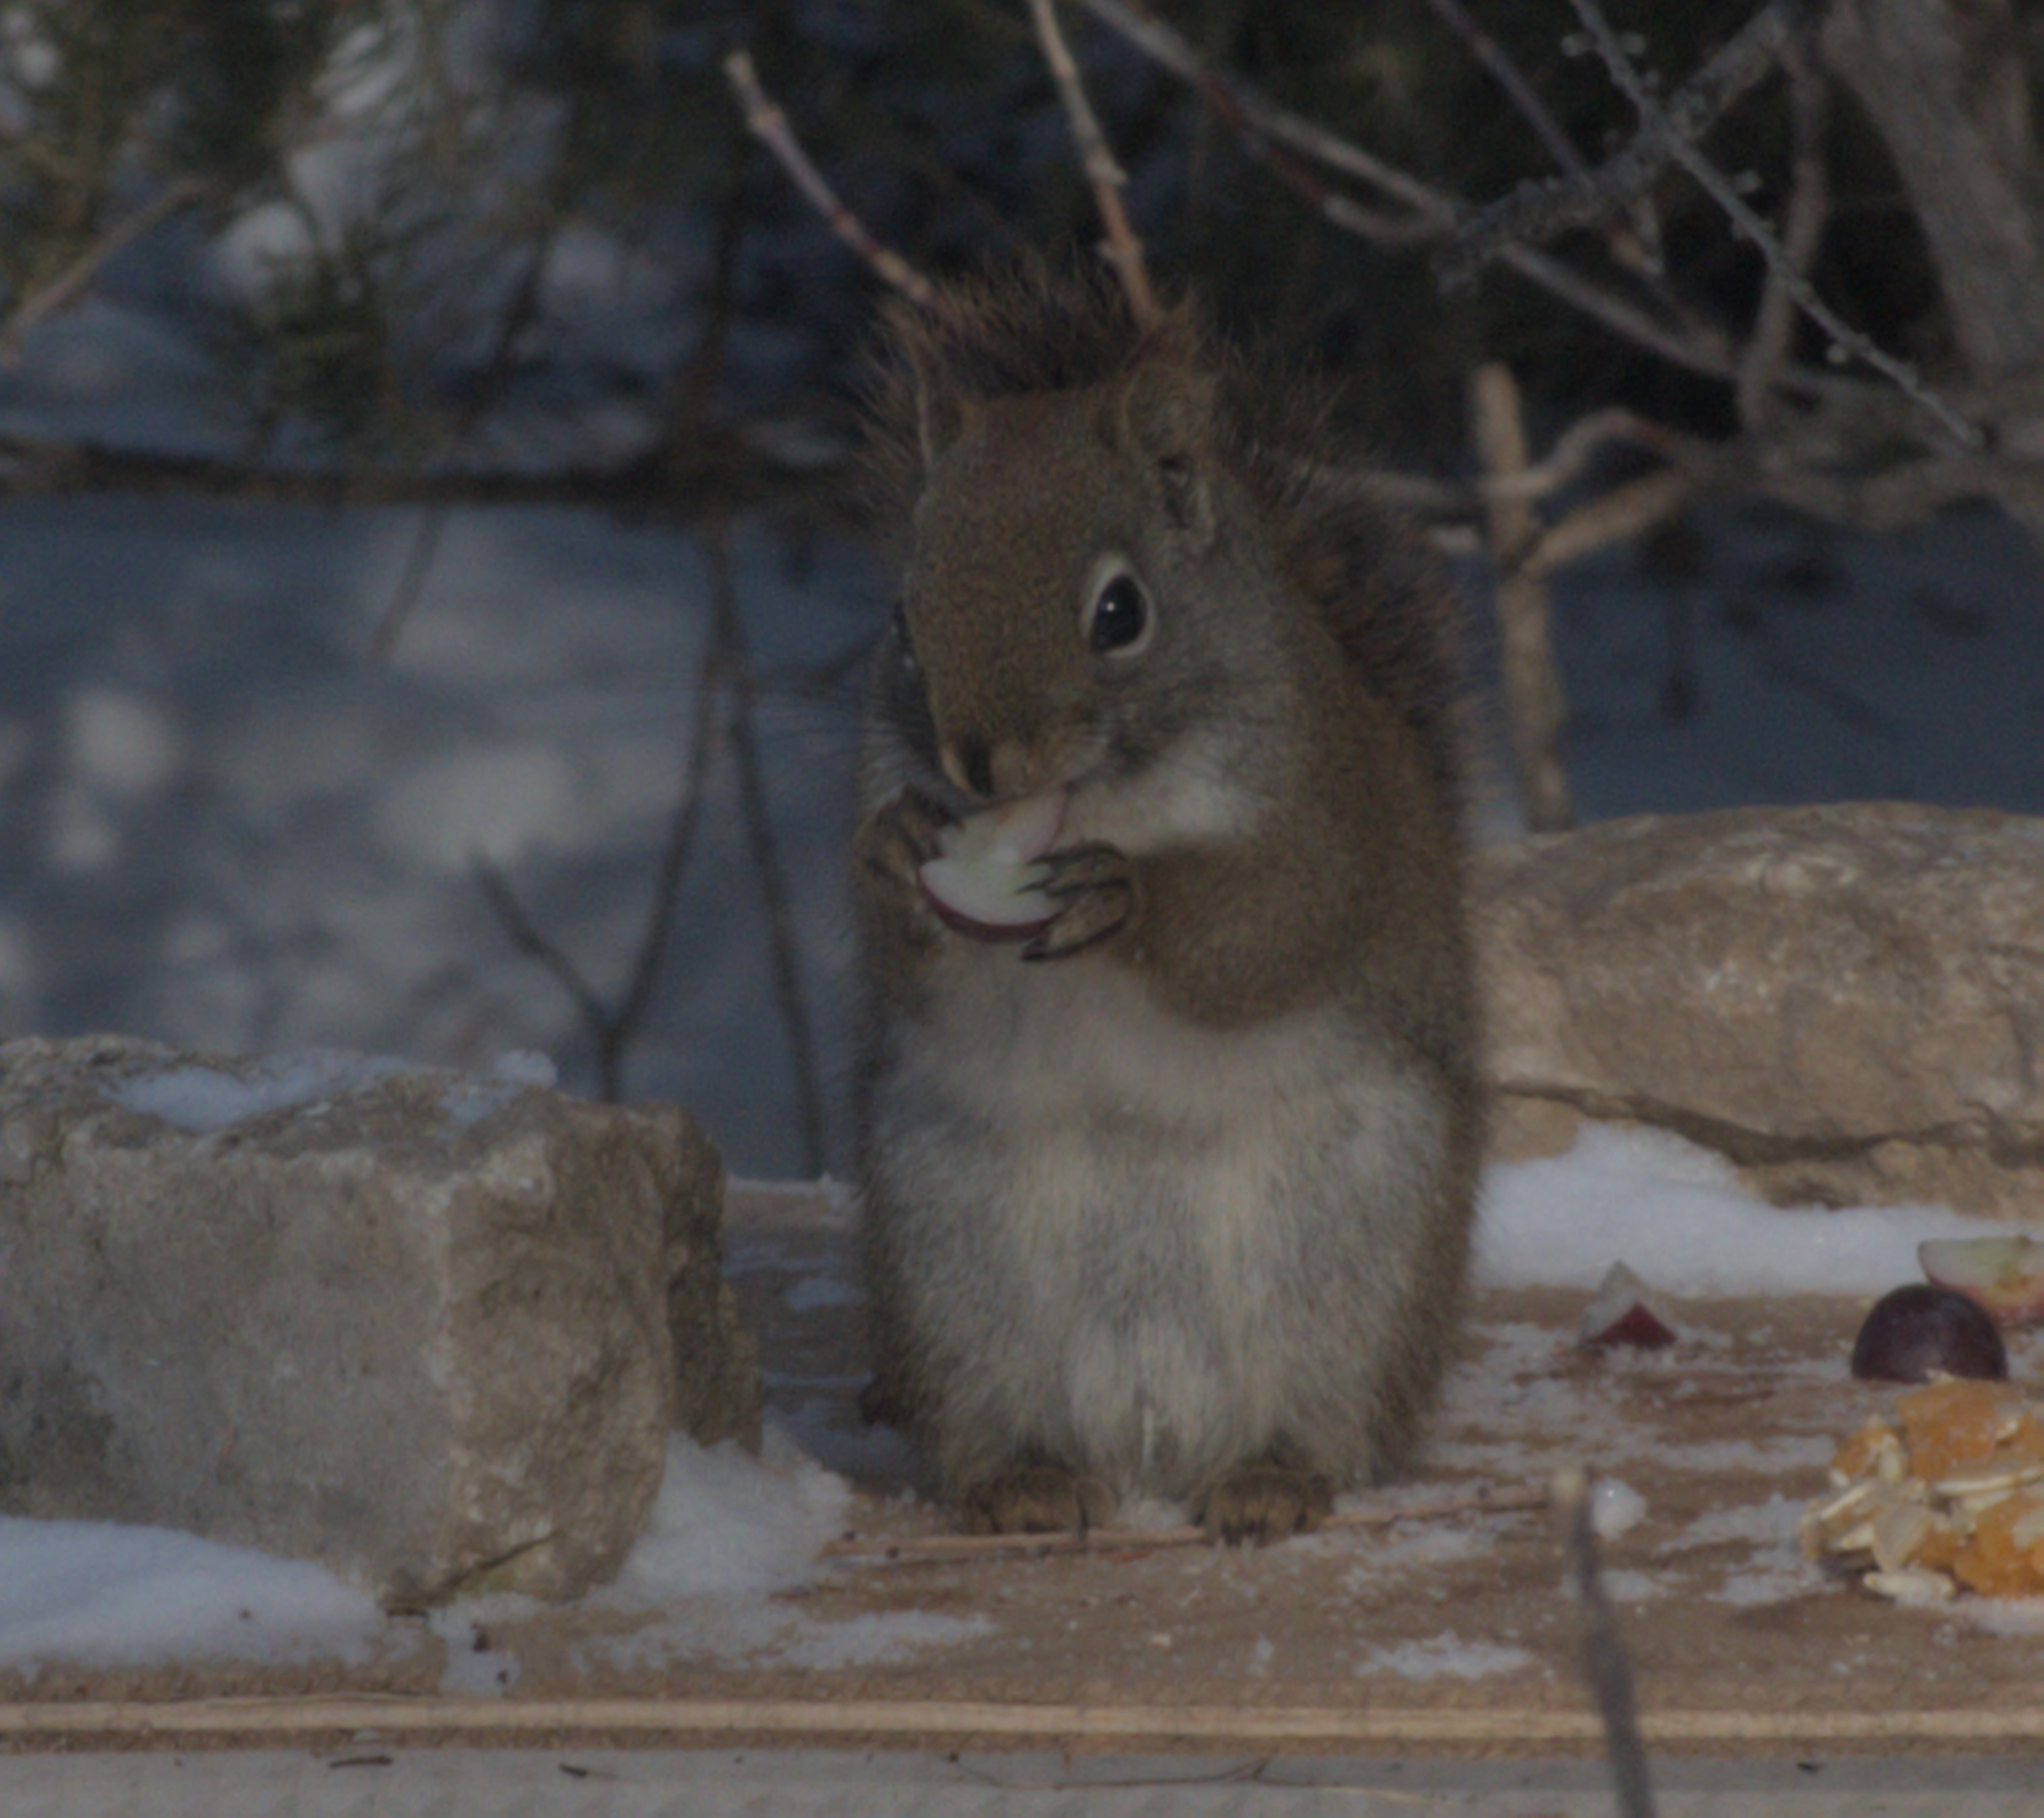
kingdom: Animalia
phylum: Chordata
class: Mammalia
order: Rodentia
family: Sciuridae
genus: Tamiasciurus
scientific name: Tamiasciurus hudsonicus
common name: Red squirrel
